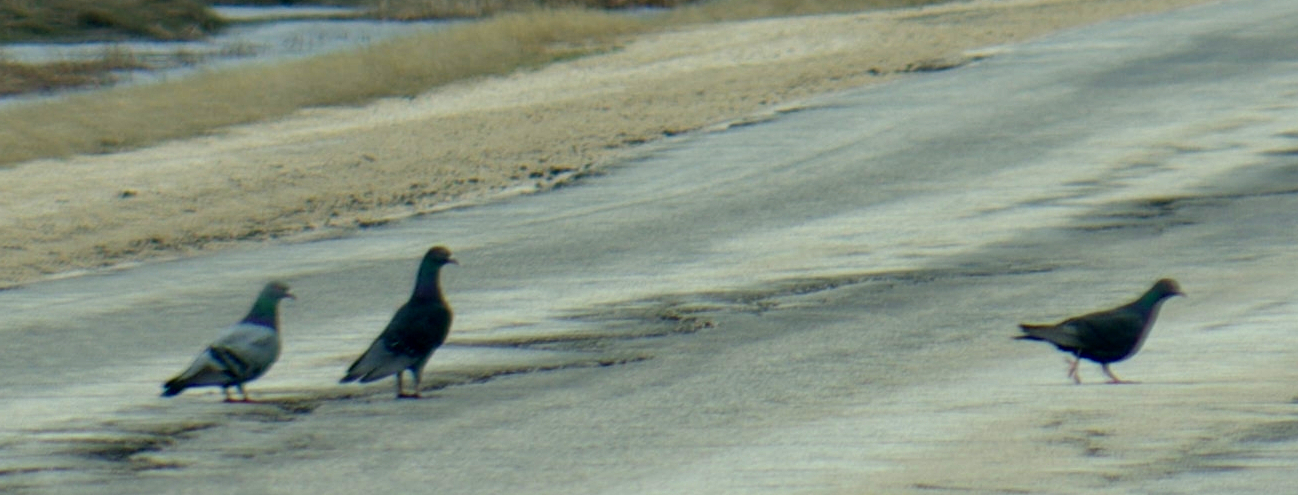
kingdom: Animalia
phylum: Chordata
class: Aves
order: Columbiformes
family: Columbidae
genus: Columba
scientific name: Columba livia
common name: Rock pigeon
